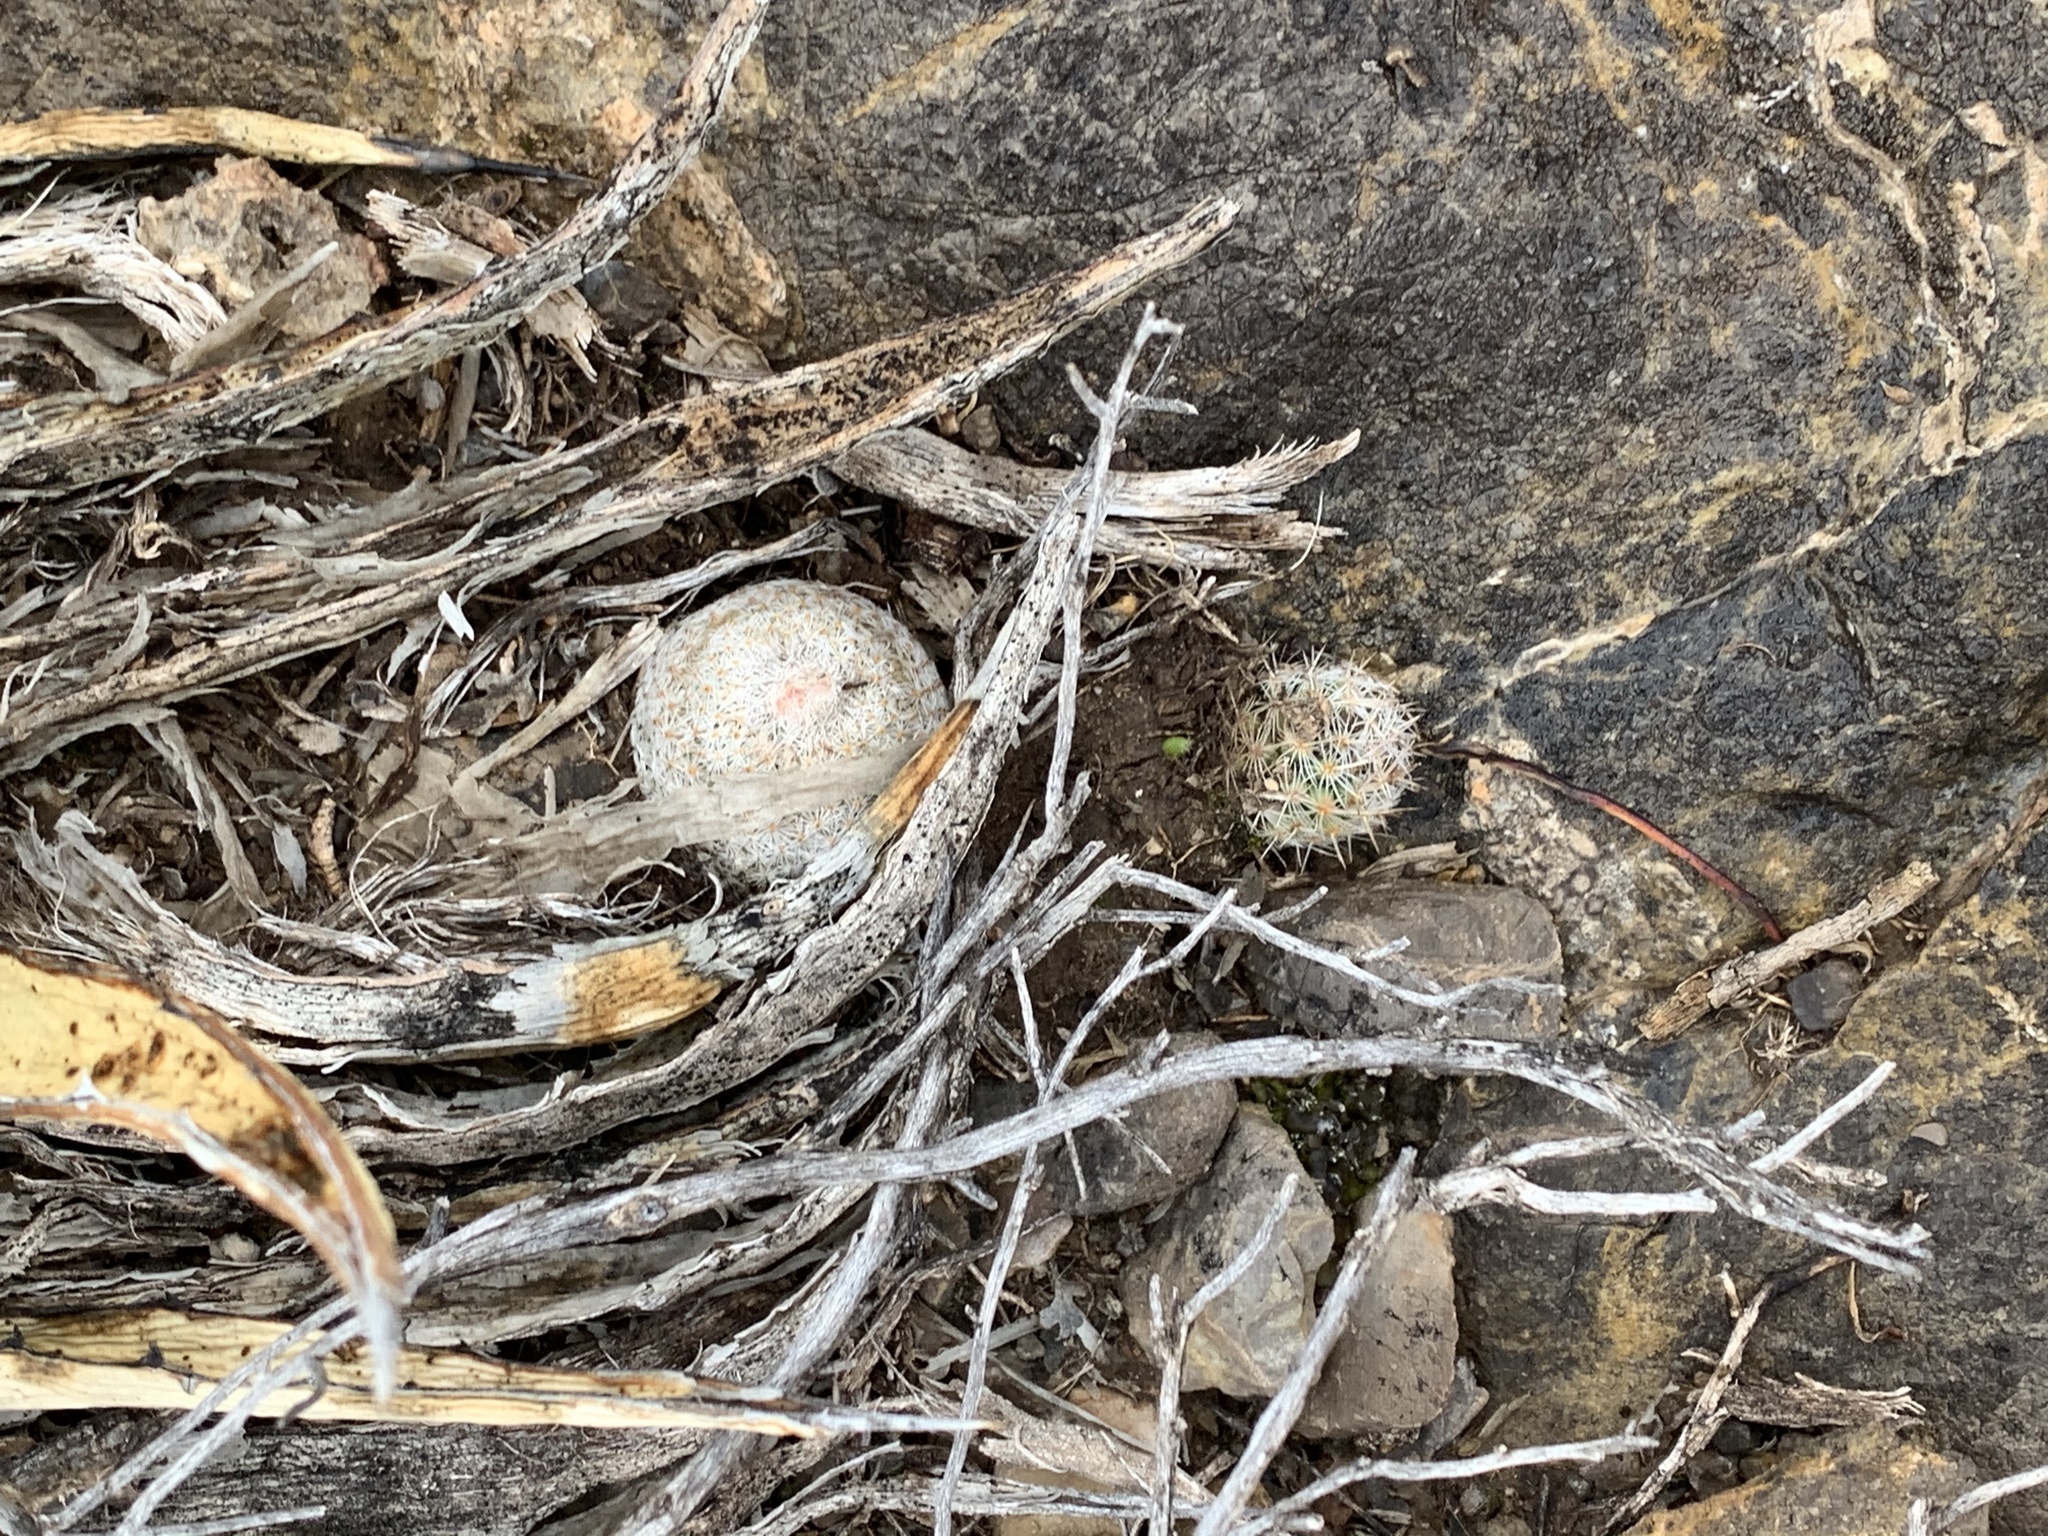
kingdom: Plantae
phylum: Tracheophyta
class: Magnoliopsida
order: Caryophyllales
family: Cactaceae
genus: Epithelantha
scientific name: Epithelantha micromeris
